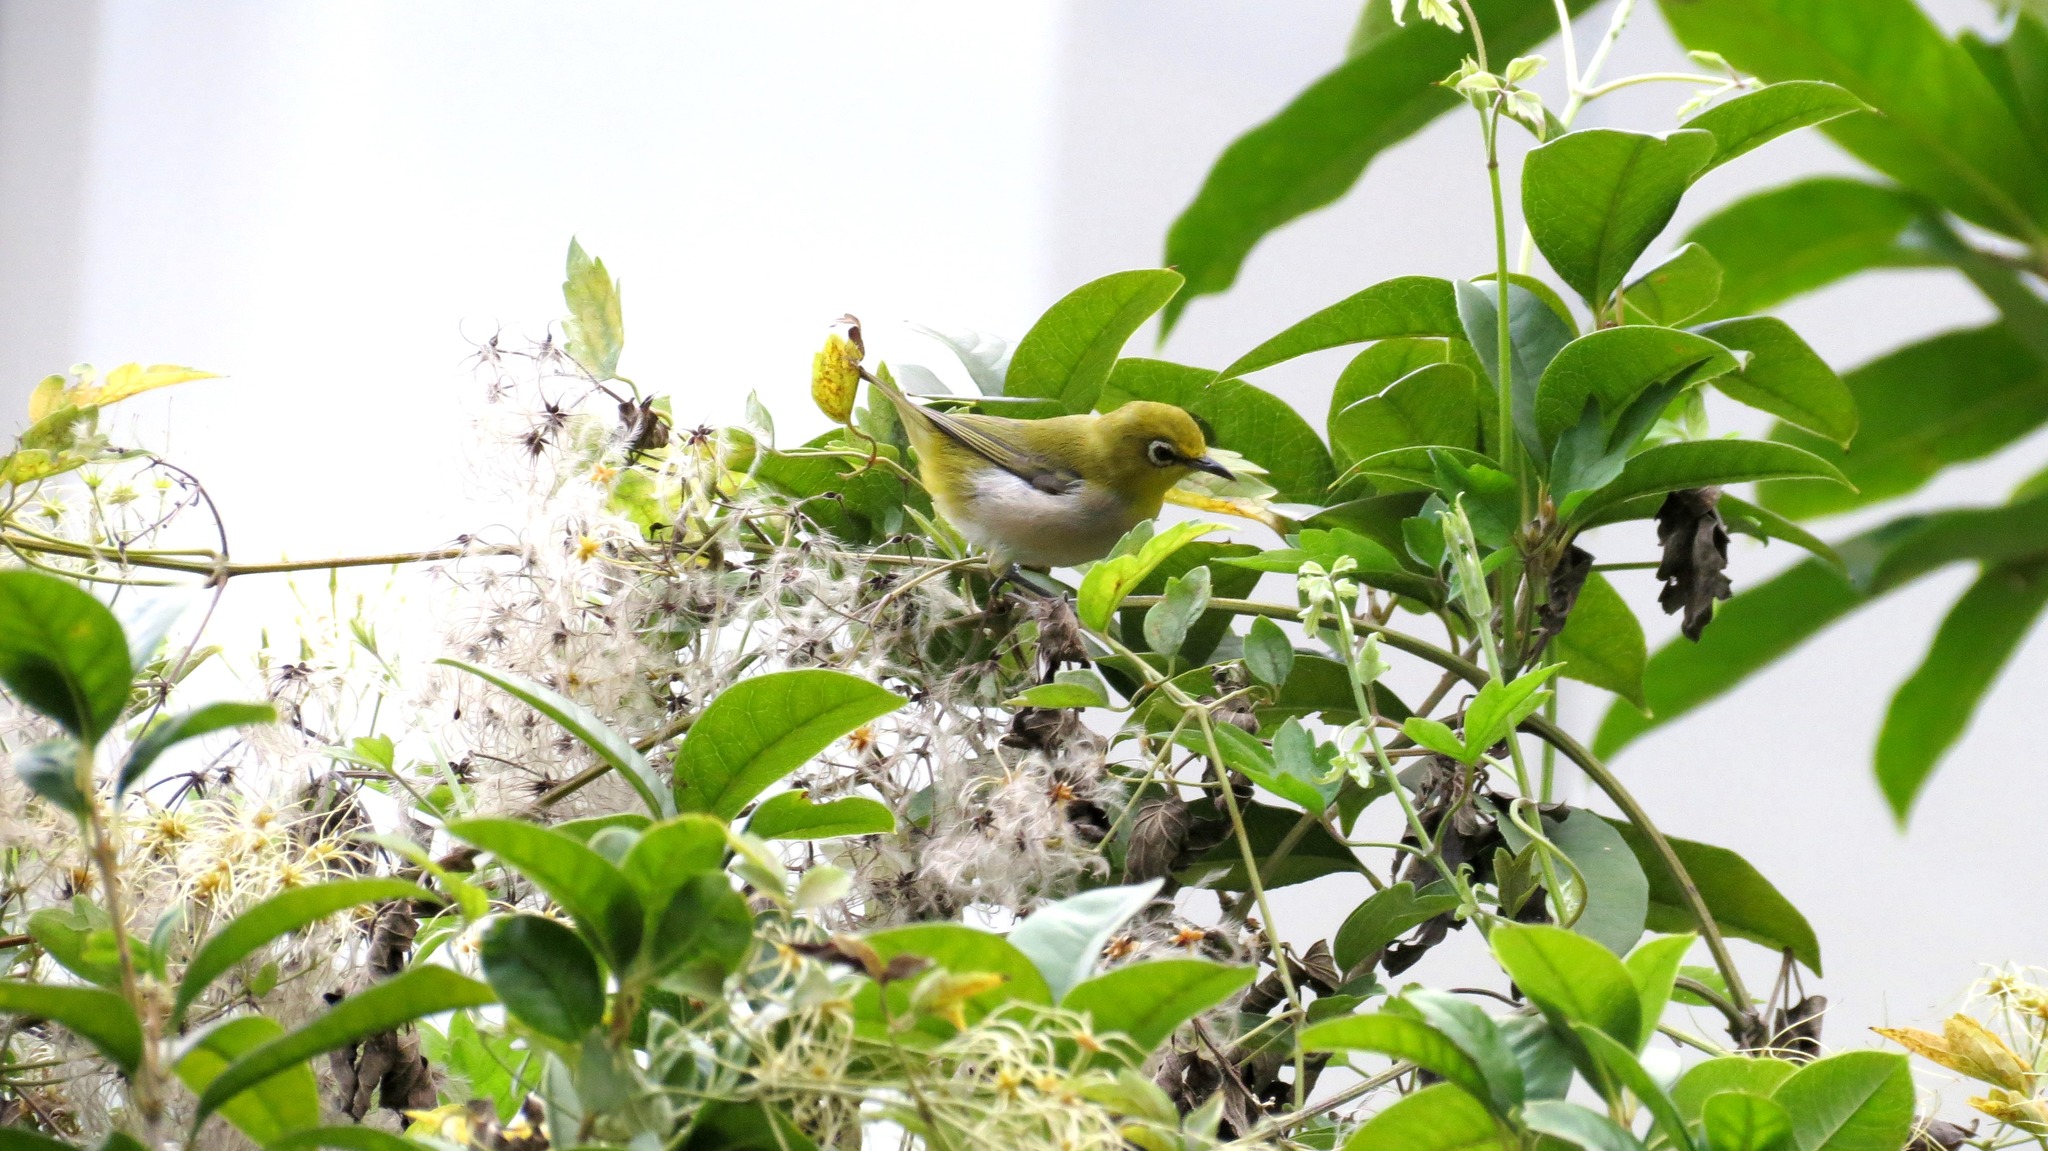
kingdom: Animalia
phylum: Chordata
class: Aves
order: Passeriformes
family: Zosteropidae
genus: Zosterops
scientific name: Zosterops simplex
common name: Swinhoe's white-eye
